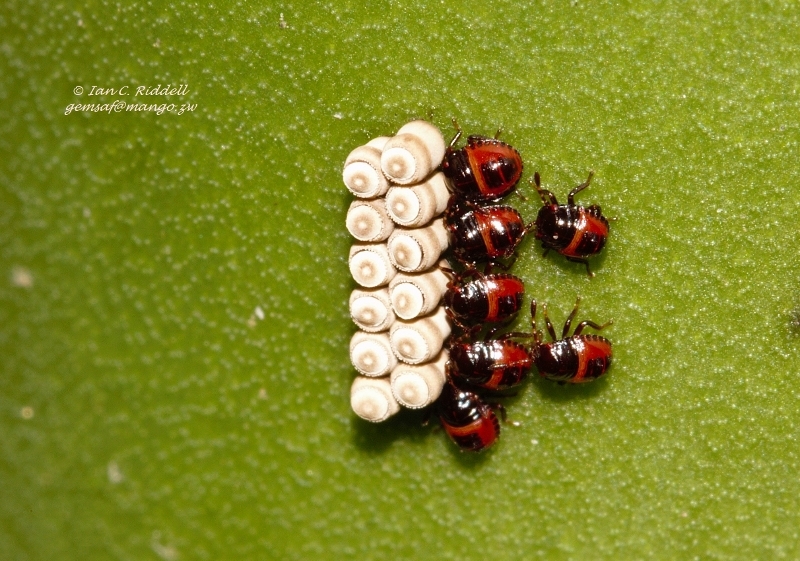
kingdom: Animalia
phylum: Arthropoda
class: Insecta
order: Hemiptera
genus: Flaminia
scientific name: Flaminia
